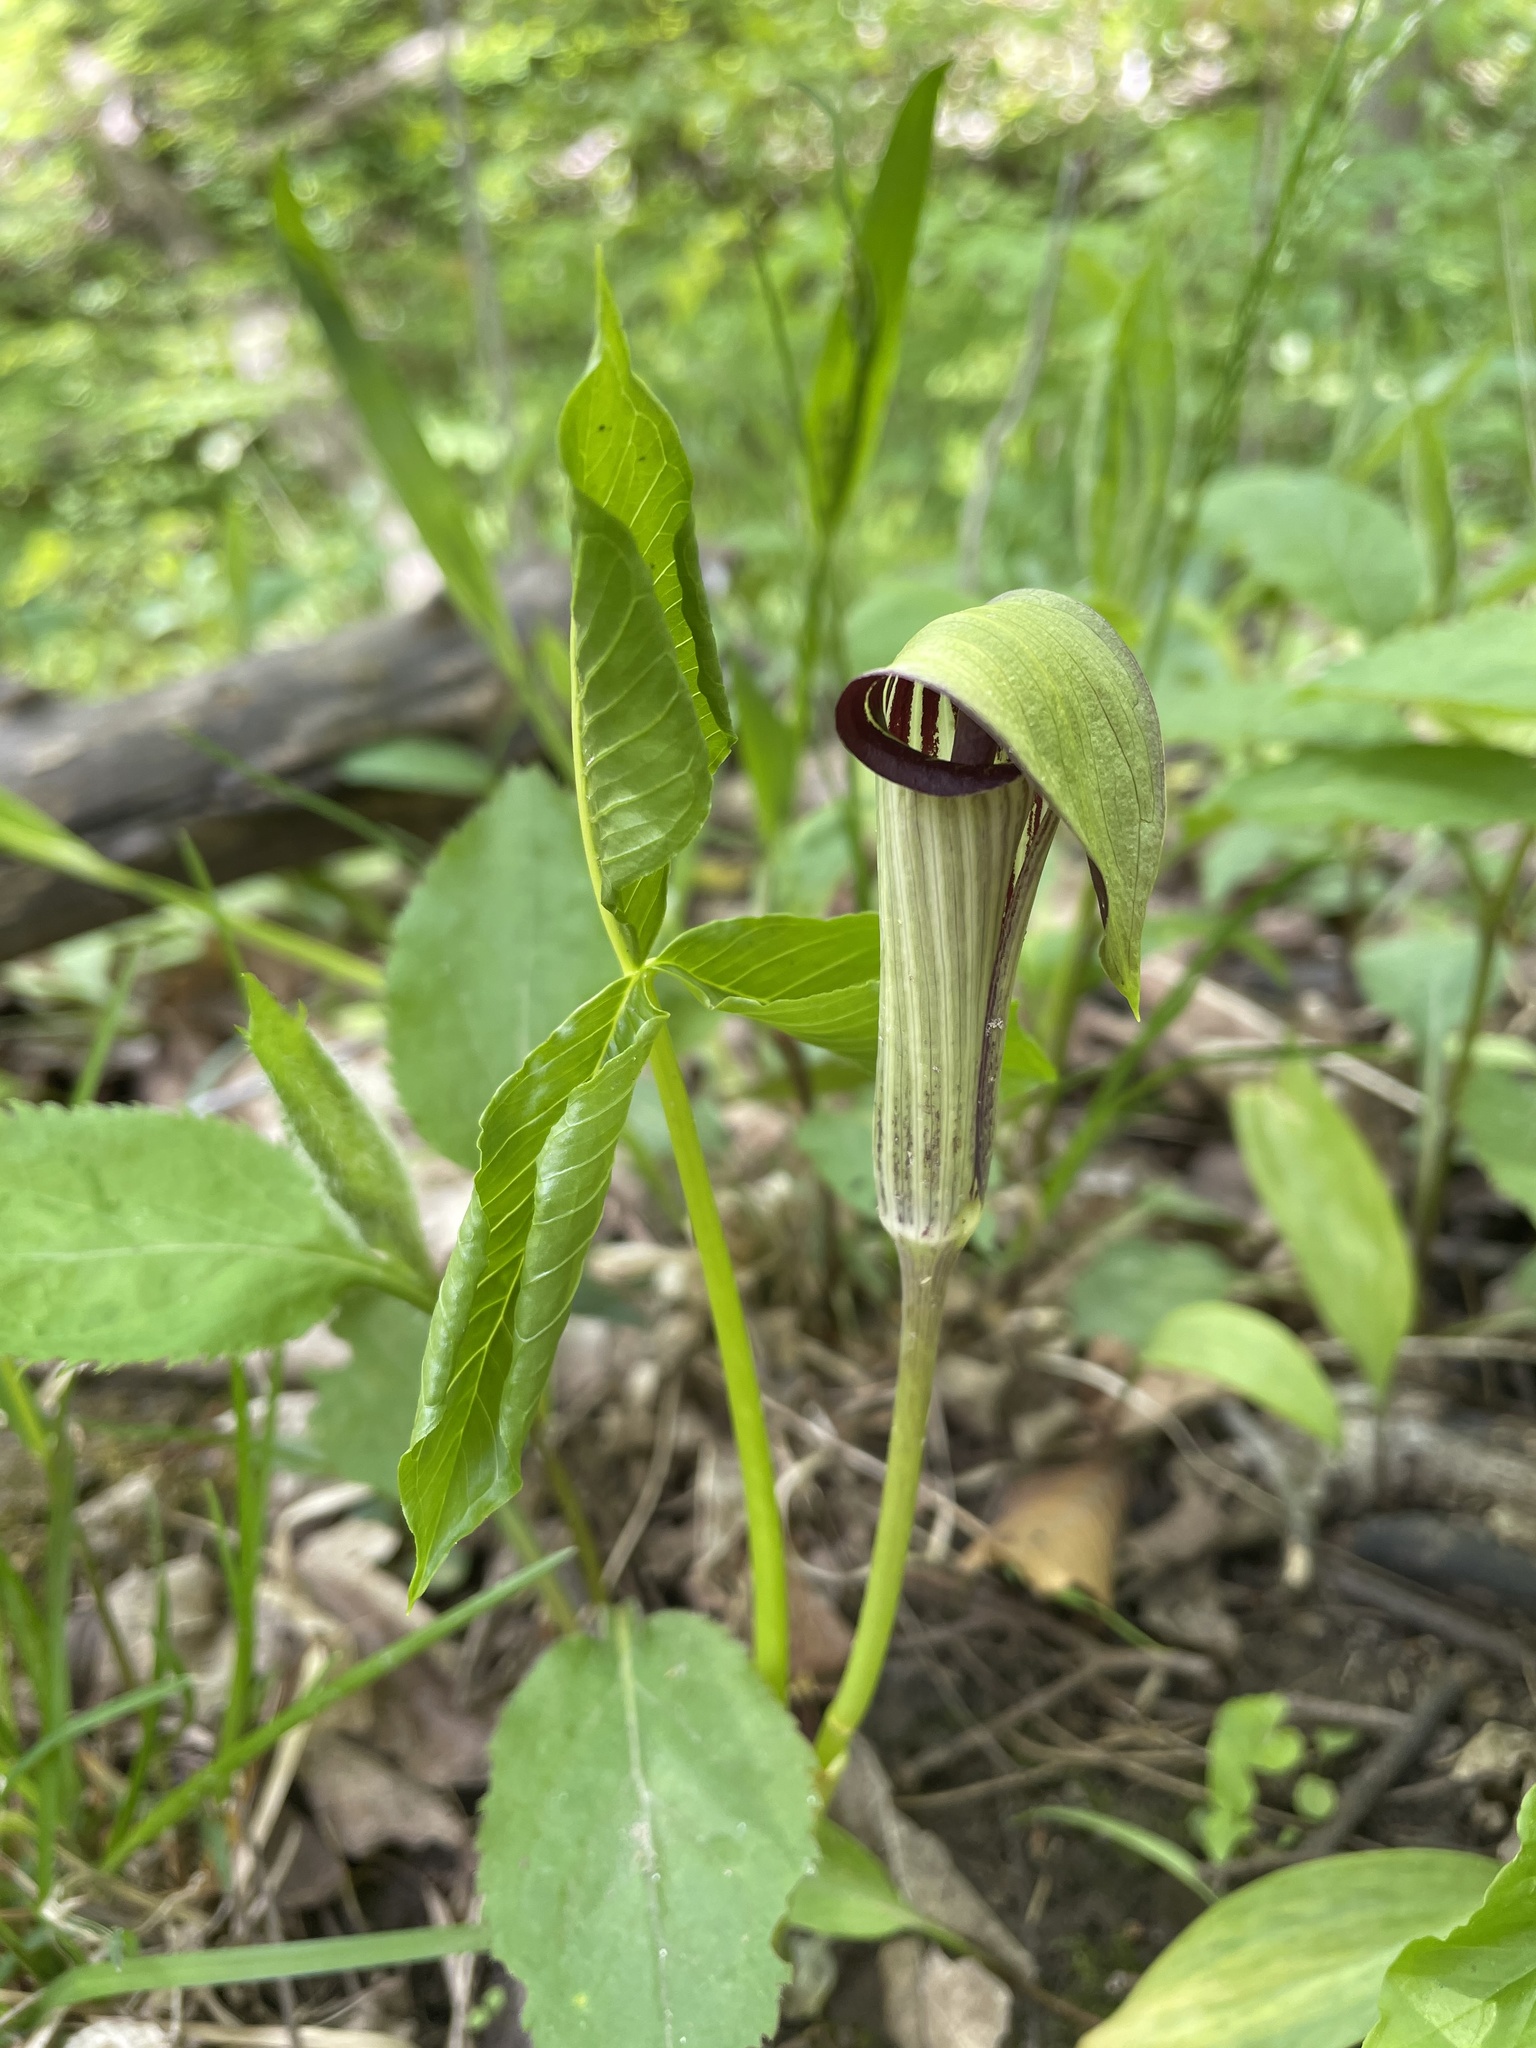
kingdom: Plantae
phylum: Tracheophyta
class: Liliopsida
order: Alismatales
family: Araceae
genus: Arisaema
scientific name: Arisaema triphyllum
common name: Jack-in-the-pulpit
